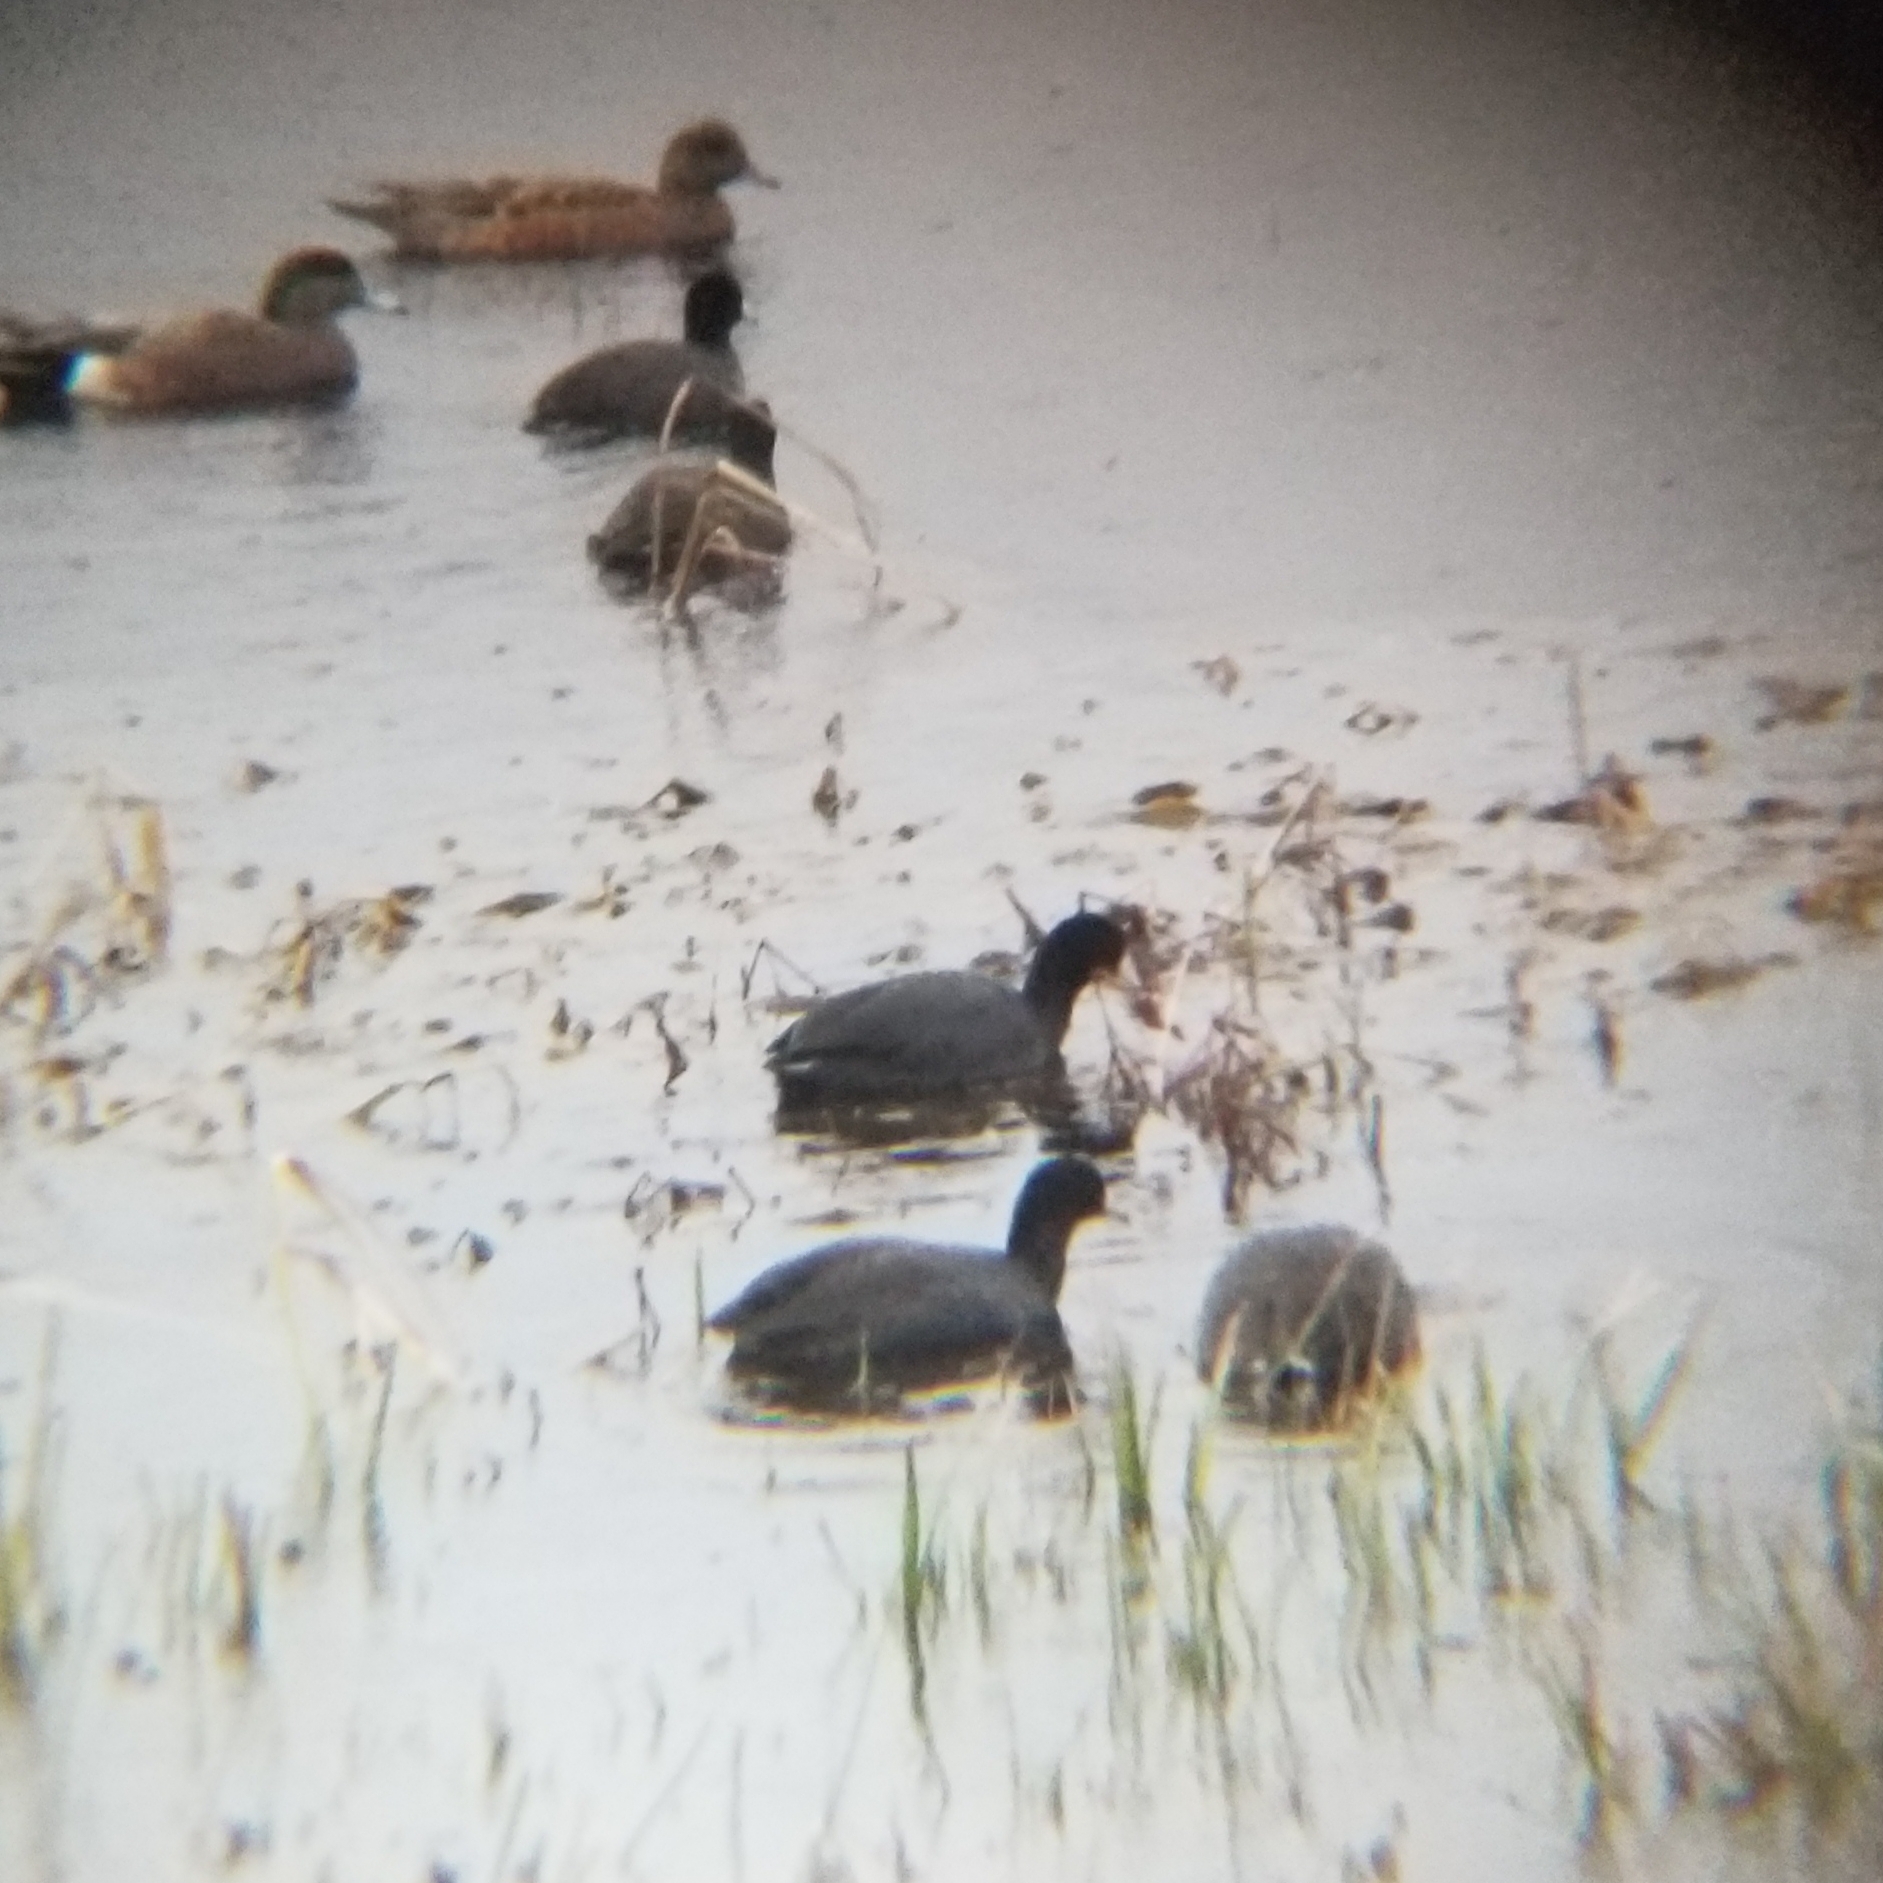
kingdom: Animalia
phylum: Chordata
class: Aves
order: Gruiformes
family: Rallidae
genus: Fulica
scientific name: Fulica americana
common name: American coot
